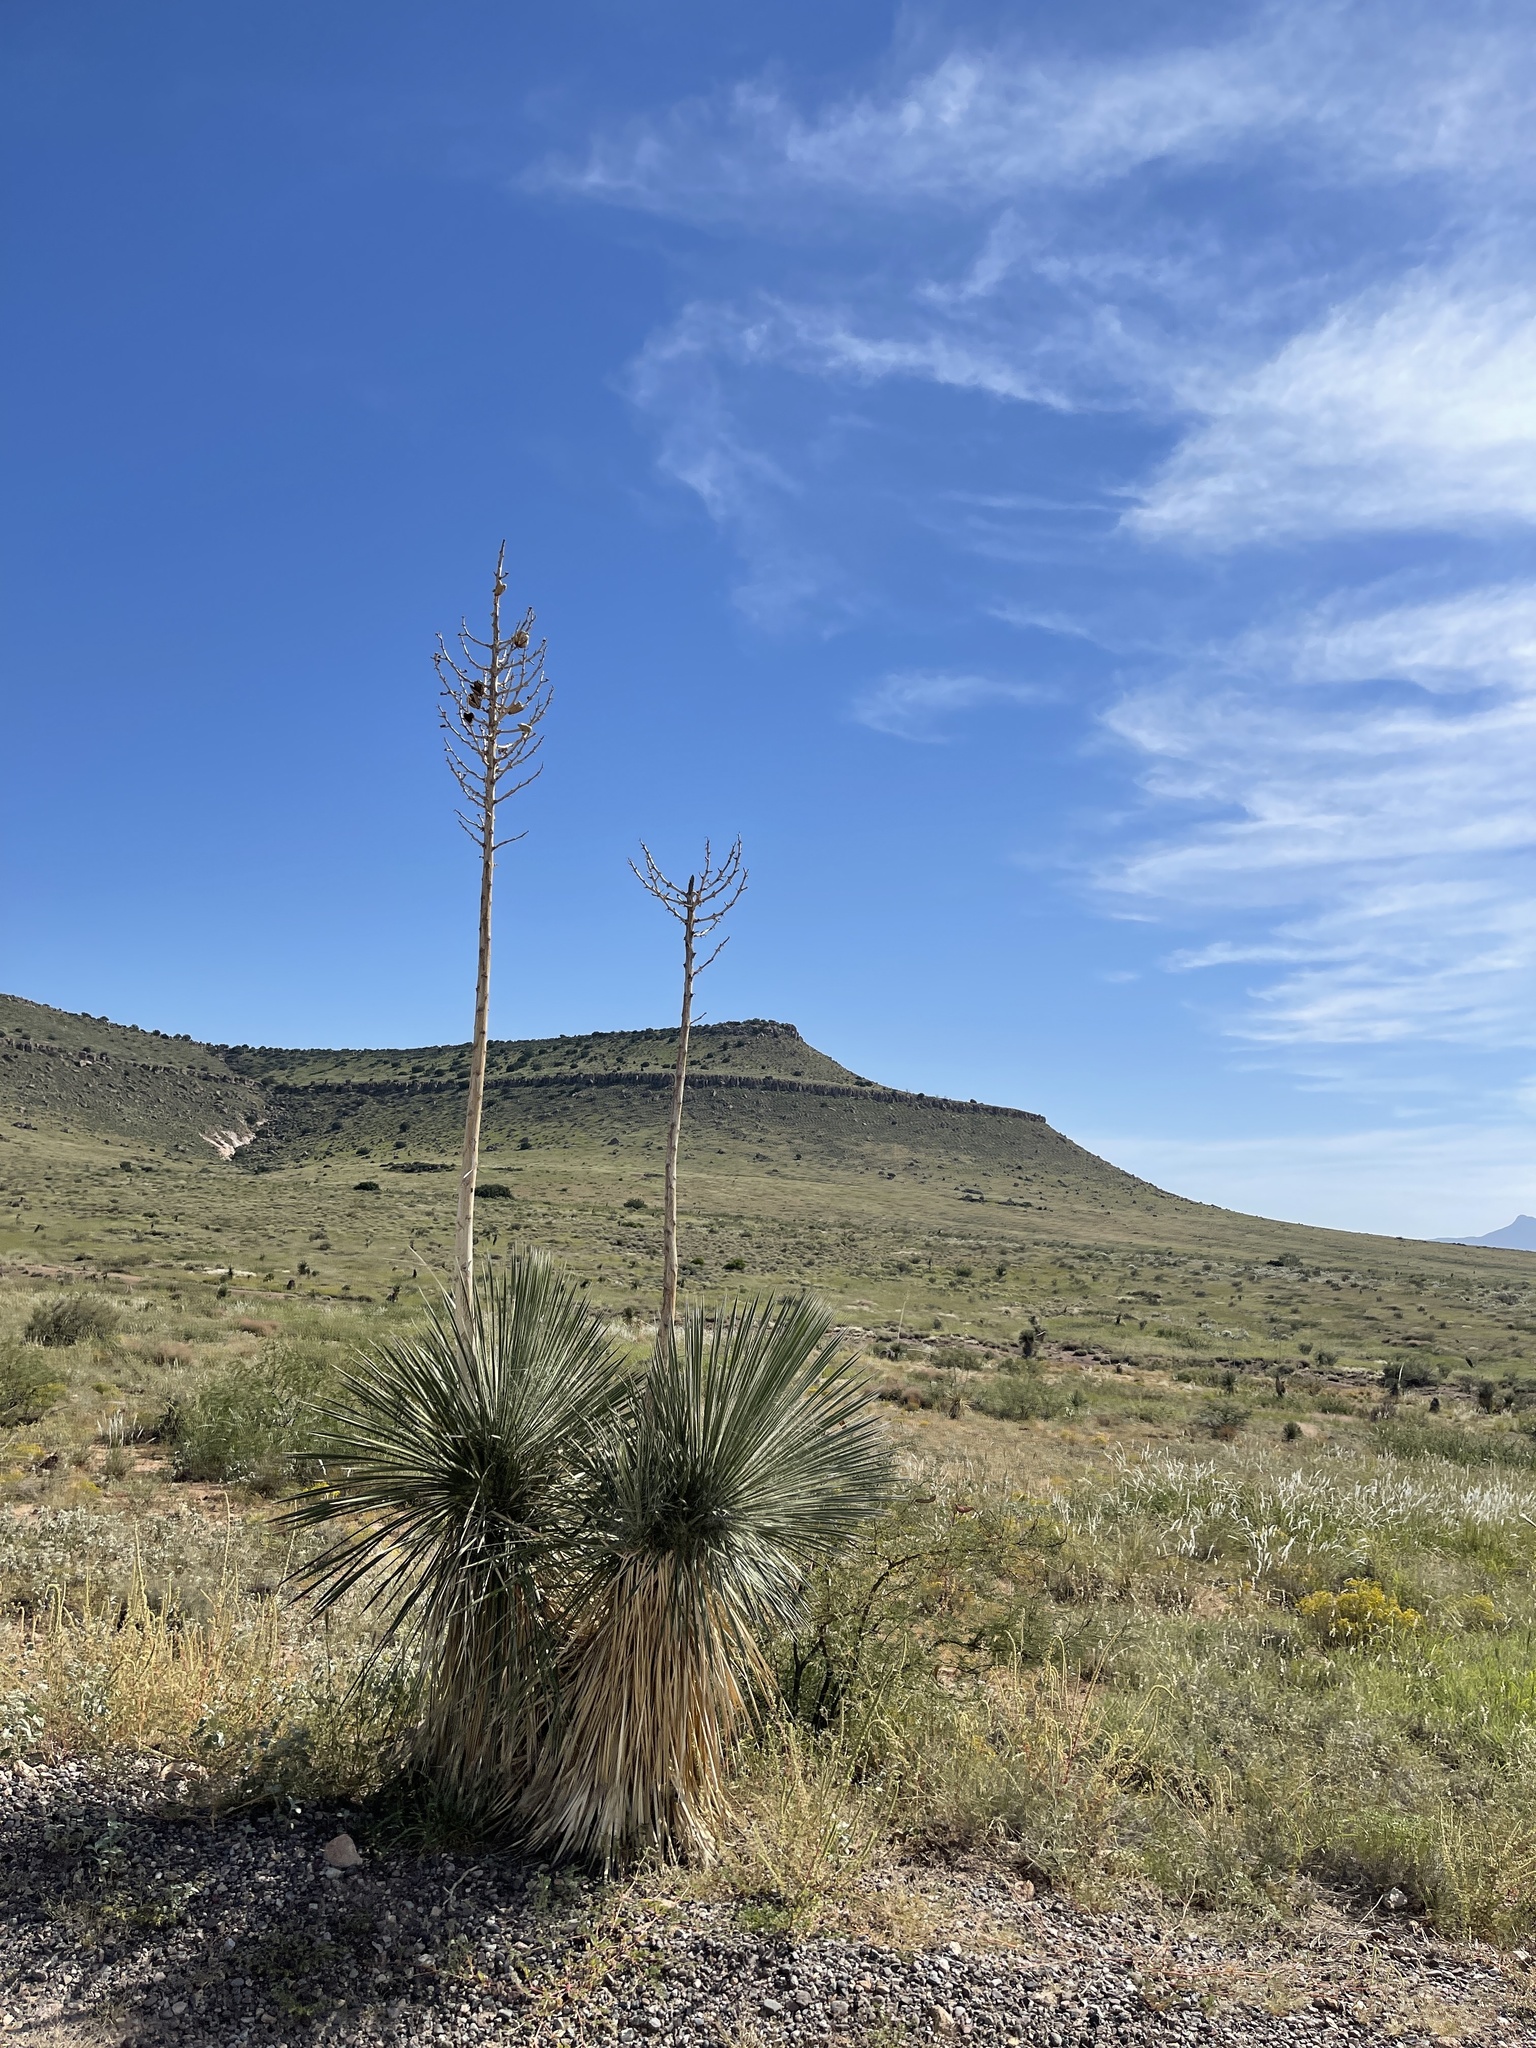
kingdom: Plantae
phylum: Tracheophyta
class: Liliopsida
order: Asparagales
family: Asparagaceae
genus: Yucca
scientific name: Yucca elata
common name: Palmella
